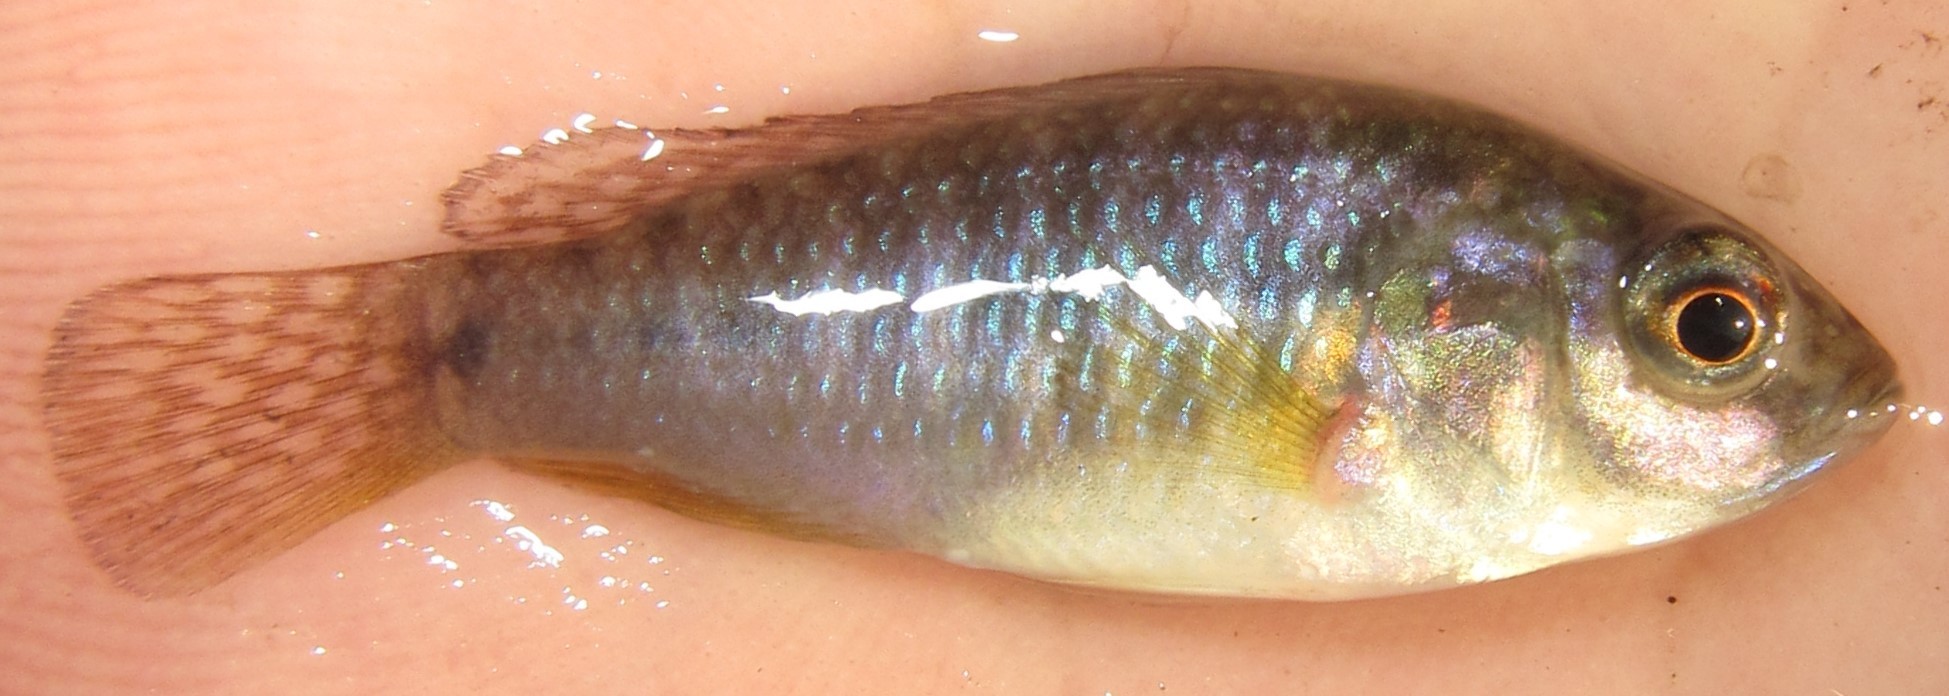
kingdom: Animalia
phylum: Chordata
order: Perciformes
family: Cichlidae
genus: Pseudocrenilabrus
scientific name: Pseudocrenilabrus philander
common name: Southern mouthbrooder
